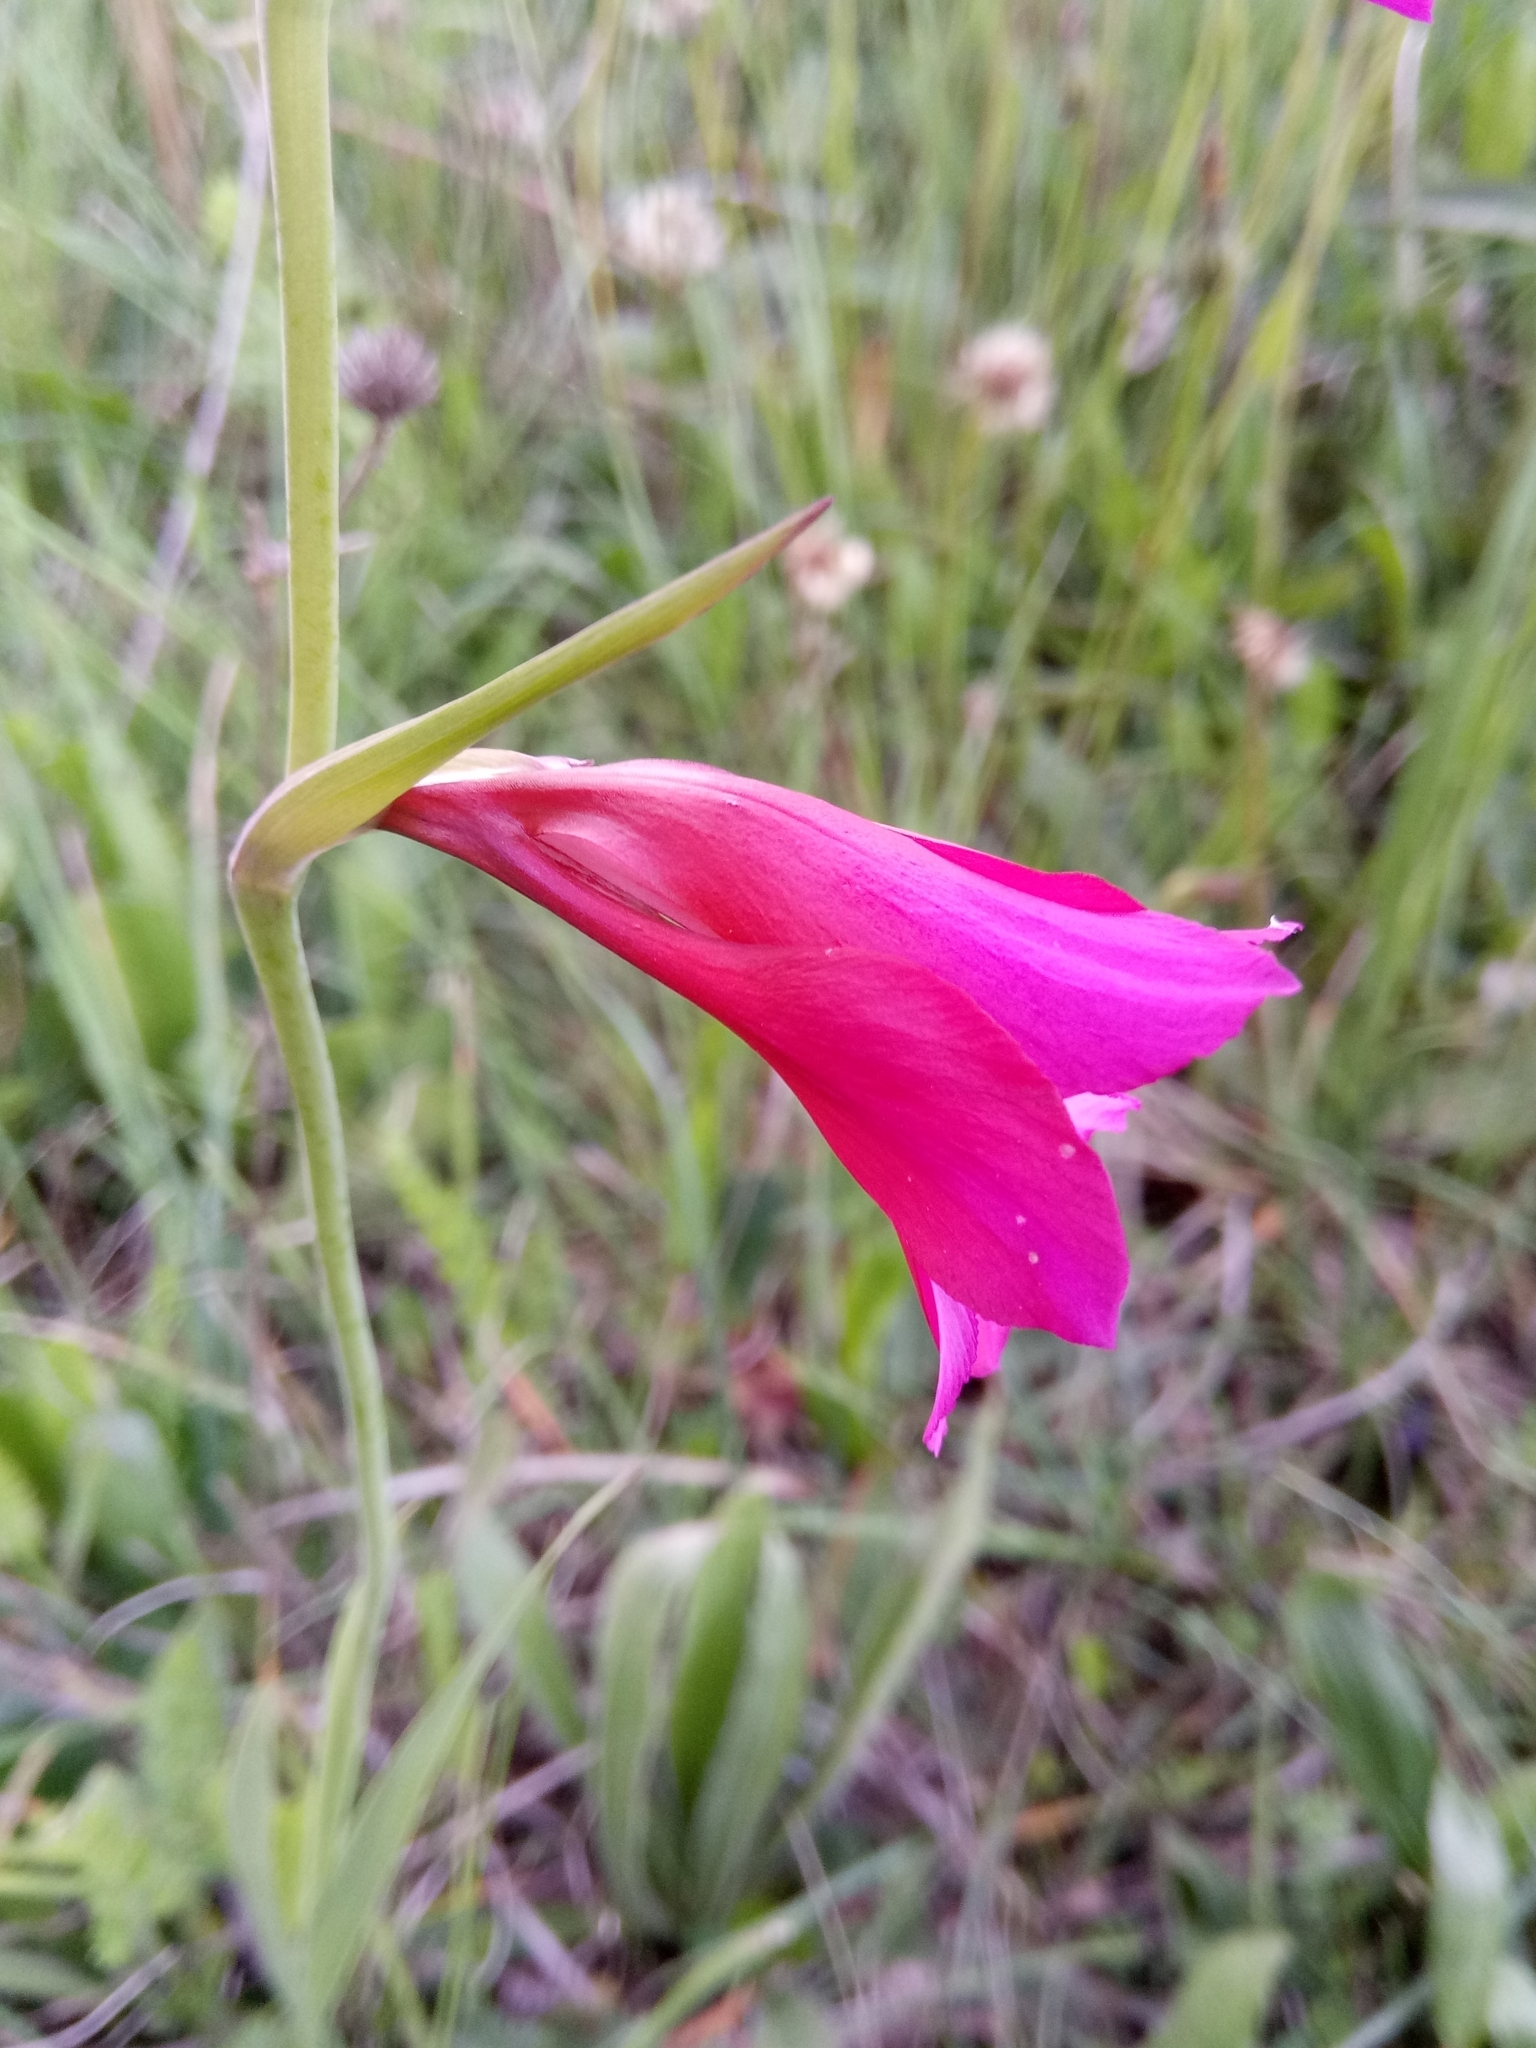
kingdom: Plantae
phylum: Tracheophyta
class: Liliopsida
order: Asparagales
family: Iridaceae
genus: Gladiolus
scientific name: Gladiolus italicus
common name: Field gladiolus
